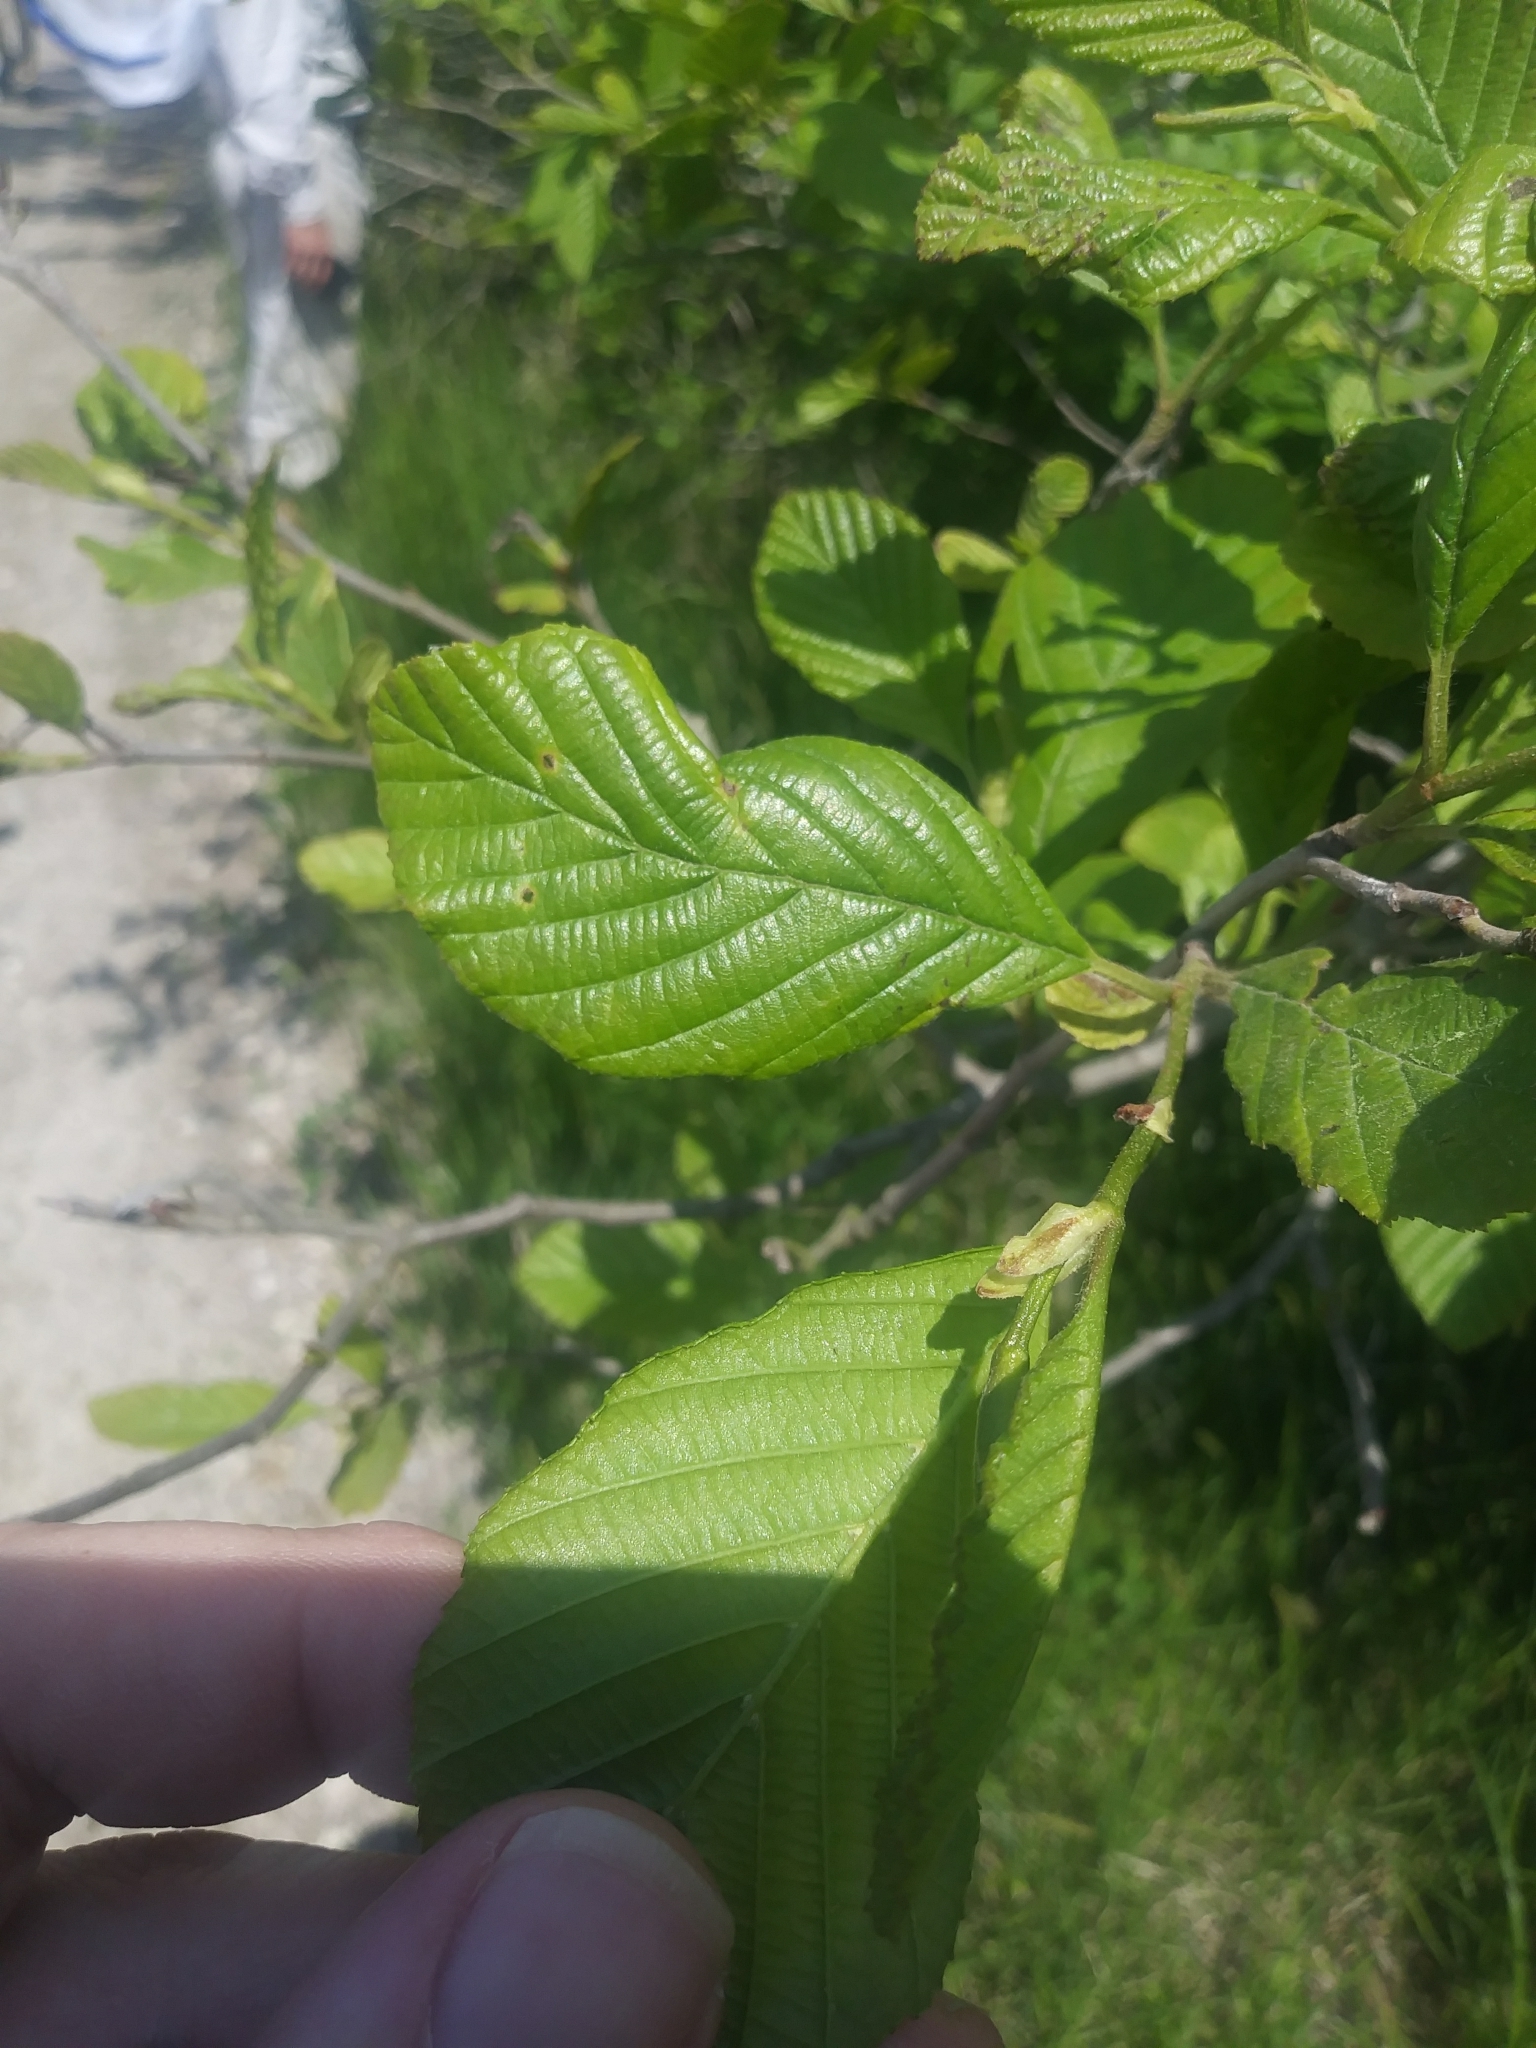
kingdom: Plantae
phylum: Tracheophyta
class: Magnoliopsida
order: Fagales
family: Betulaceae
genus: Alnus
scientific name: Alnus serrulata
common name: Hazel alder
